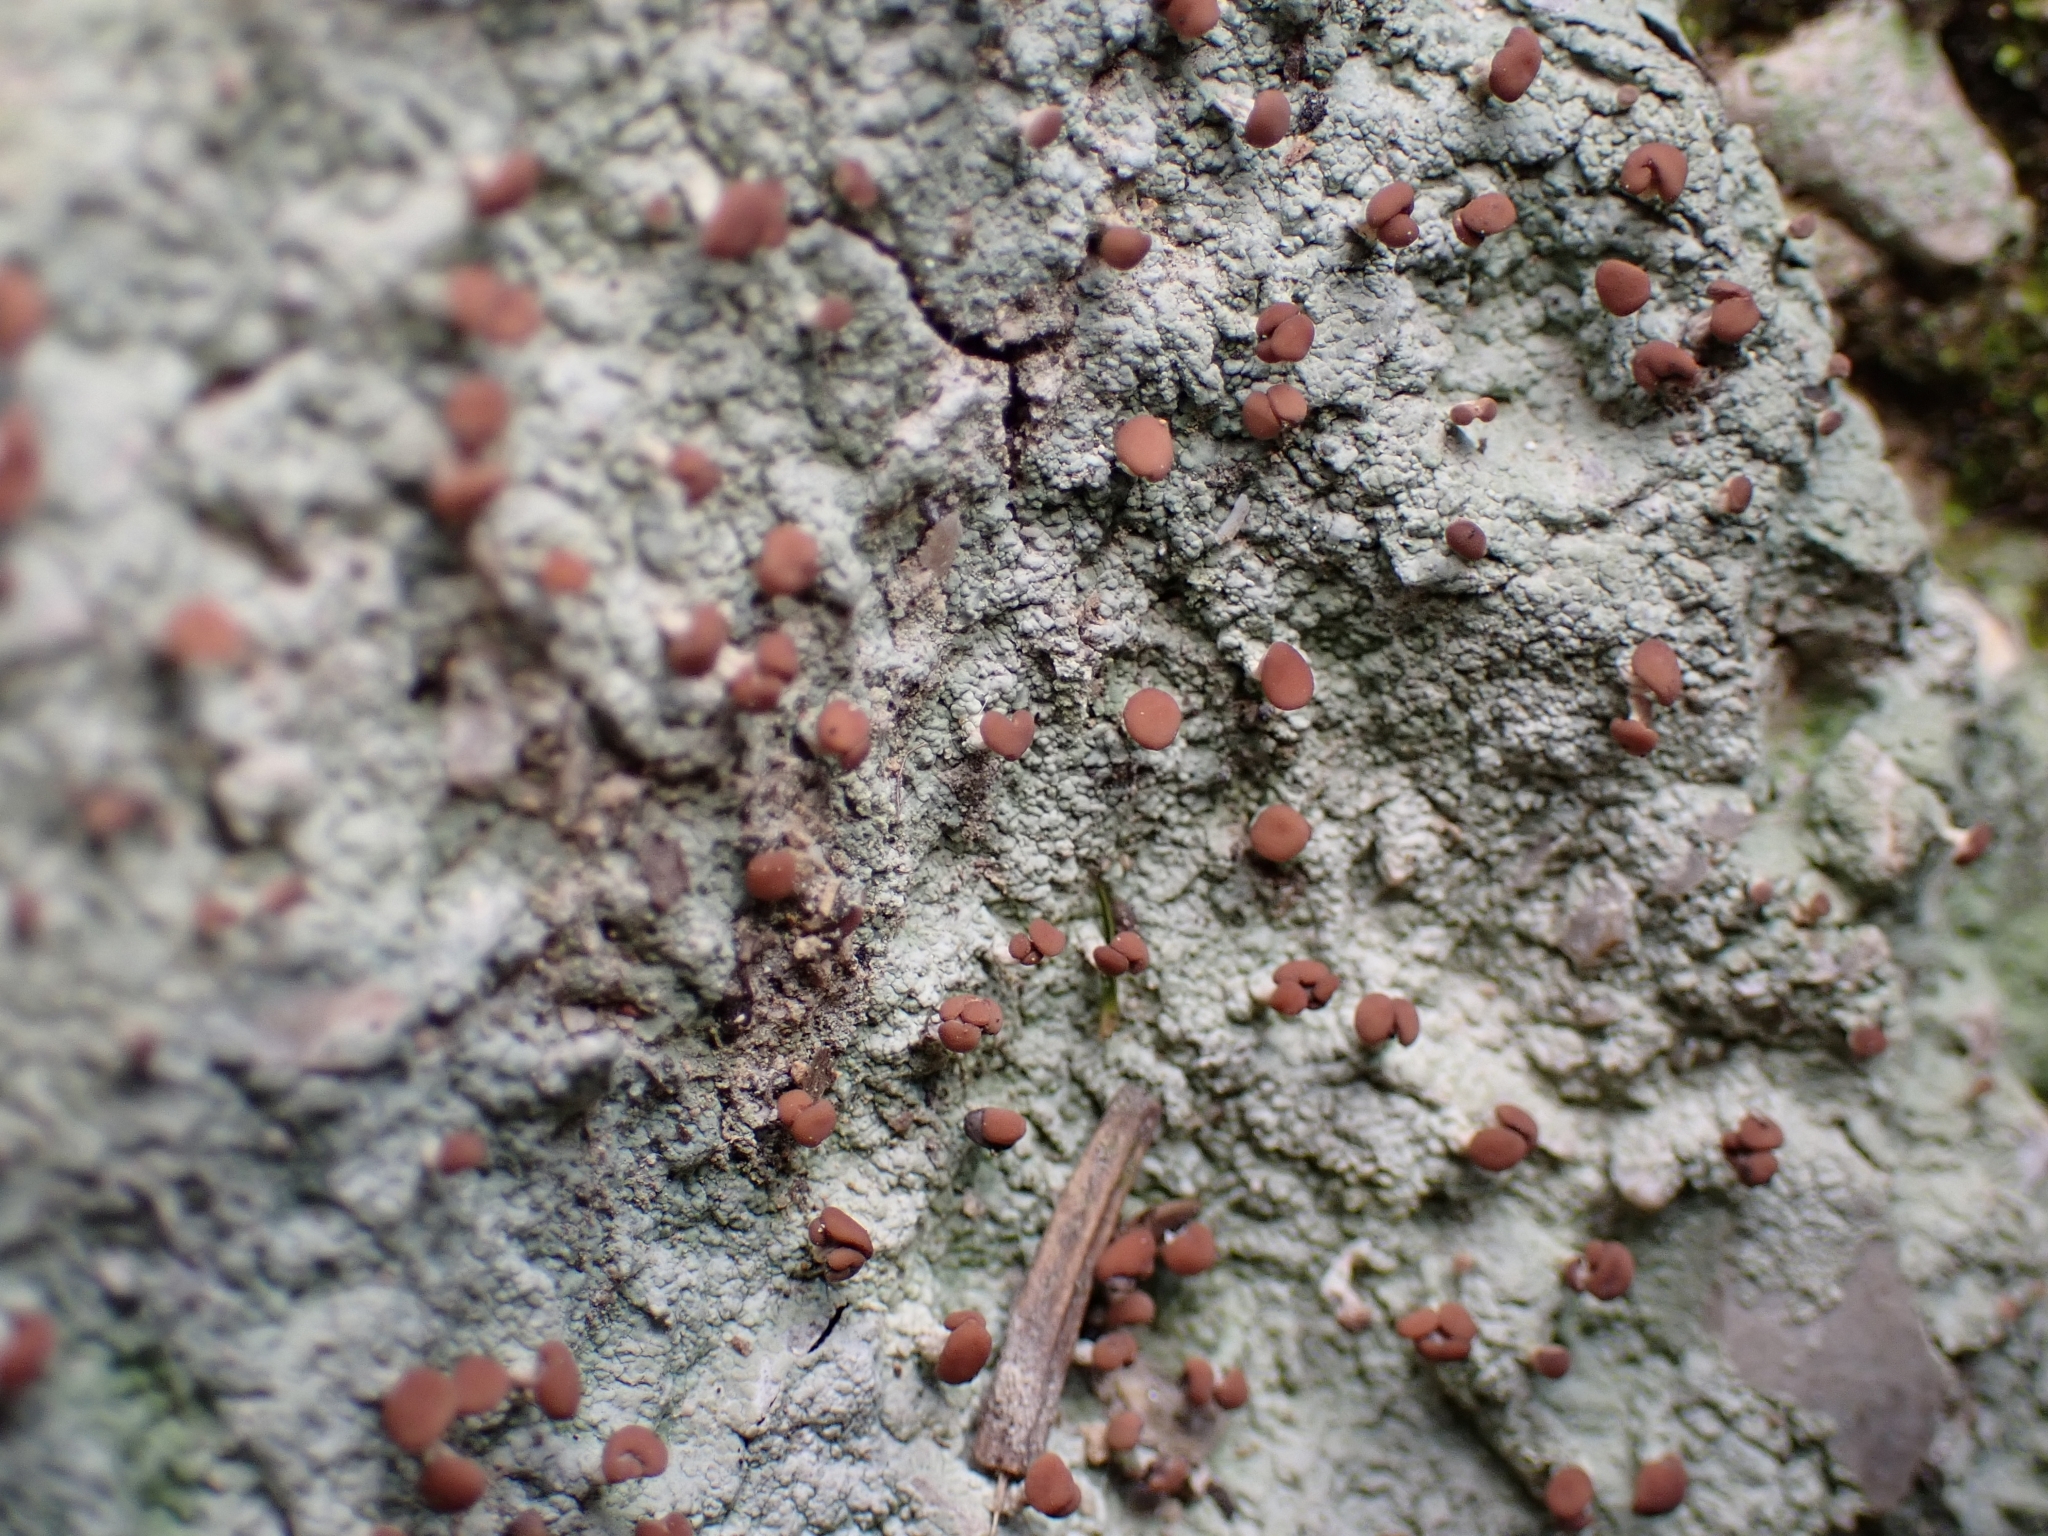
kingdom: Fungi
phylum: Ascomycota
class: Lecanoromycetes
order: Baeomycetales
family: Baeomycetaceae
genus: Baeomyces
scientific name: Baeomyces rufus
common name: Brown beret lichen
